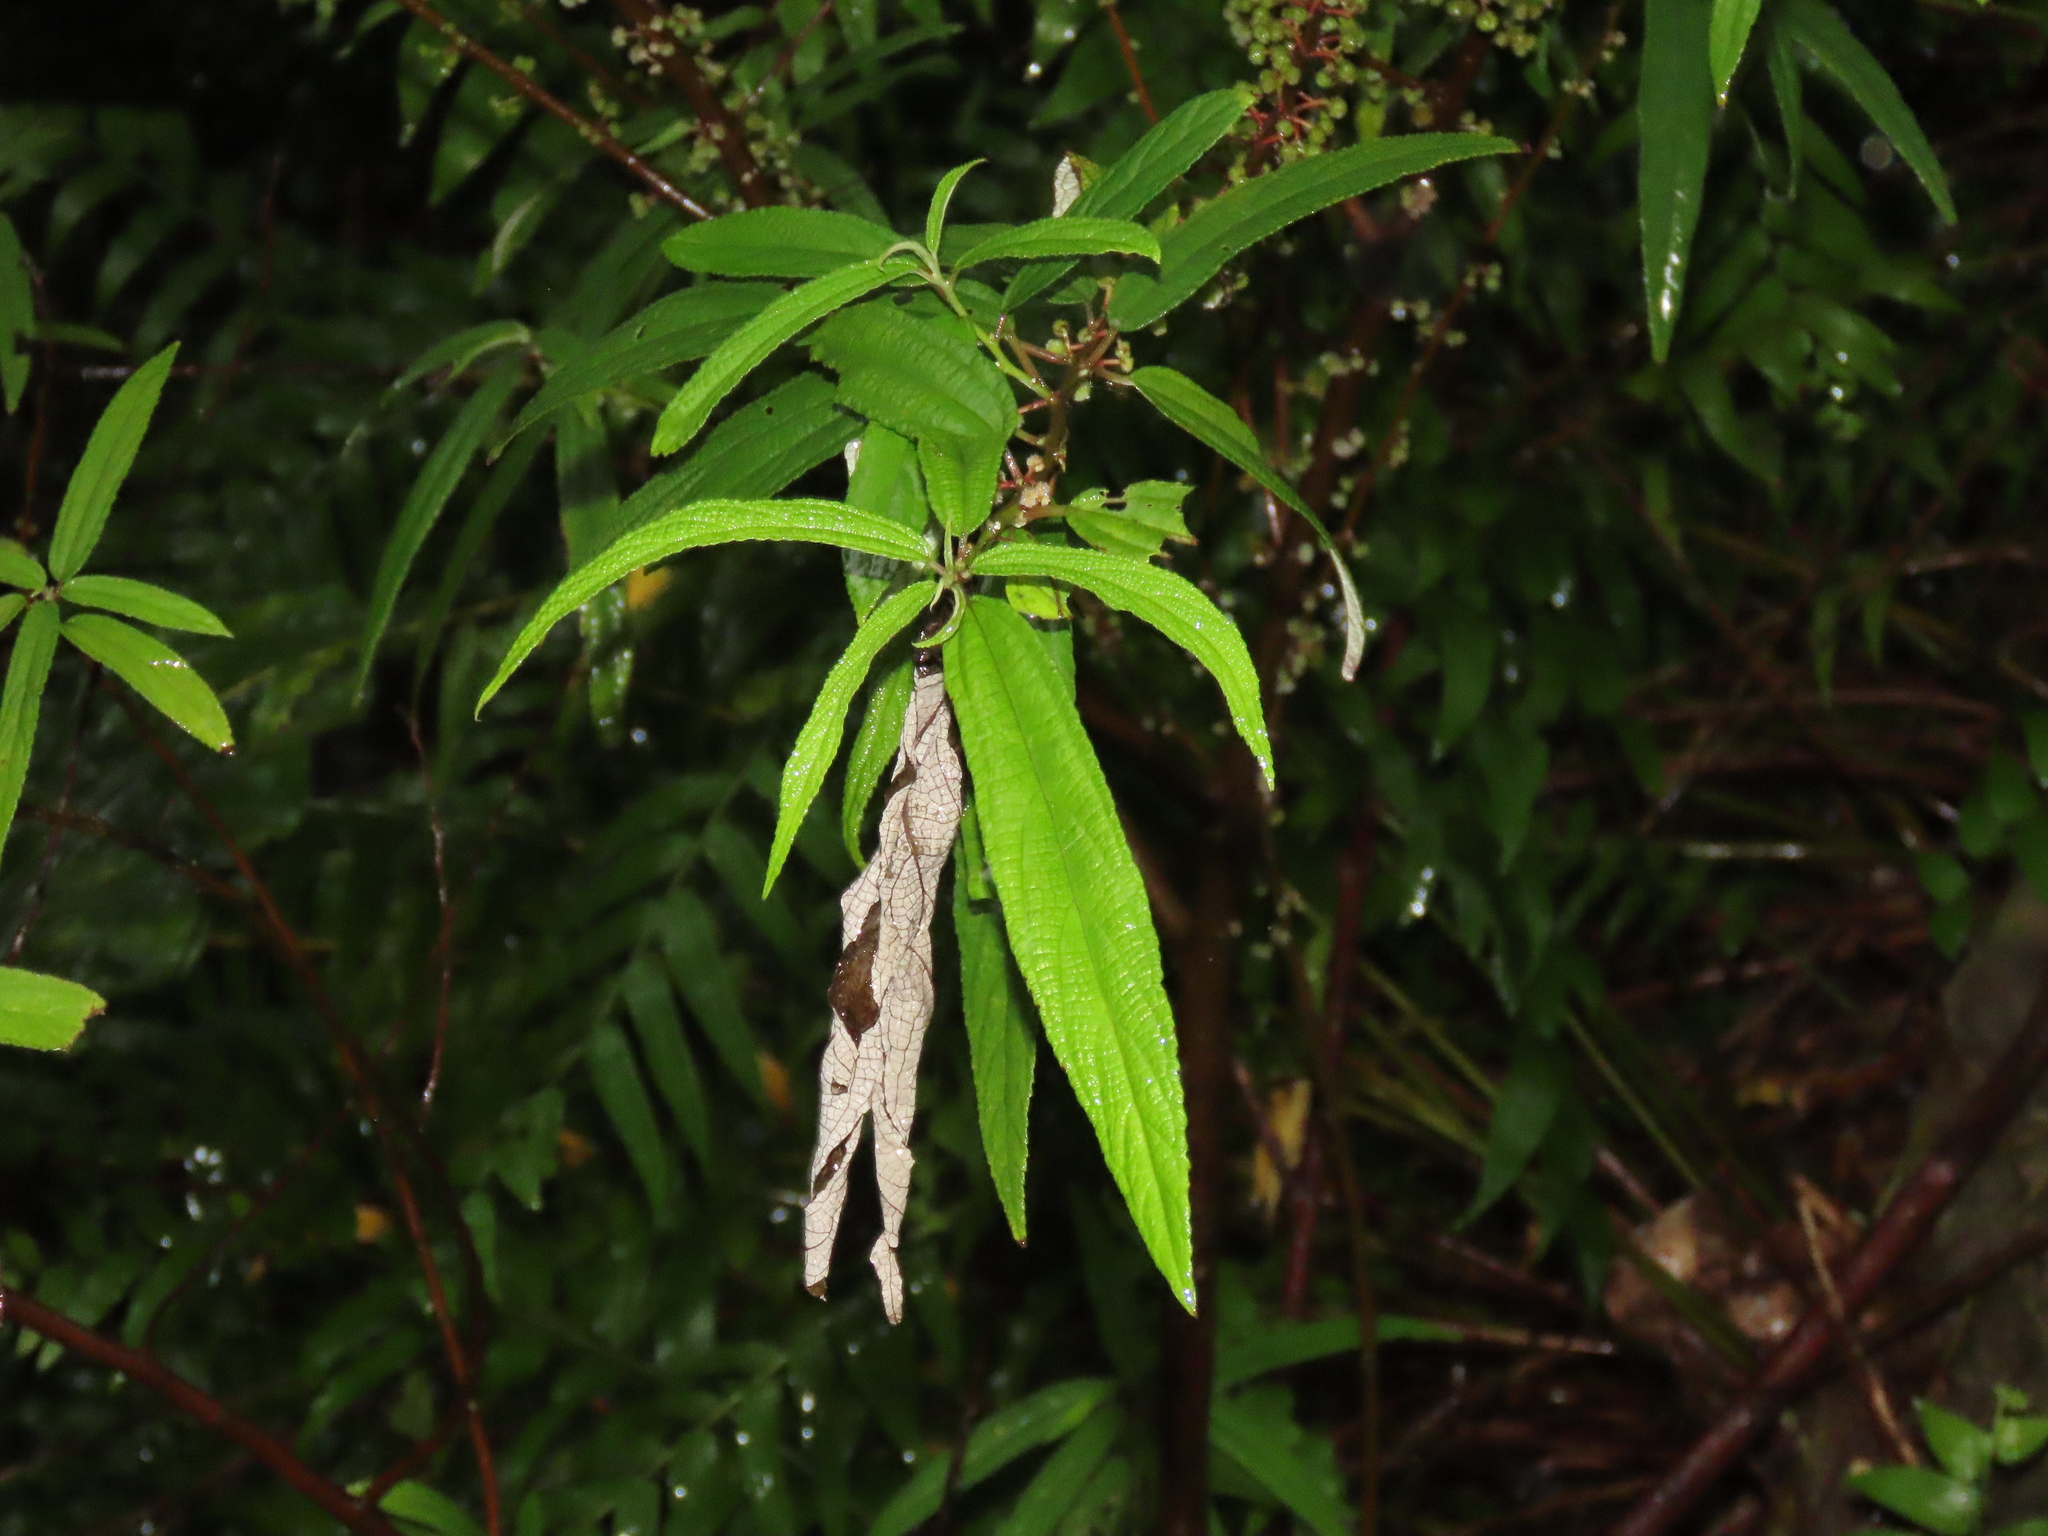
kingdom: Plantae
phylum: Tracheophyta
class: Magnoliopsida
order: Rosales
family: Urticaceae
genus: Debregeasia
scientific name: Debregeasia orientalis
